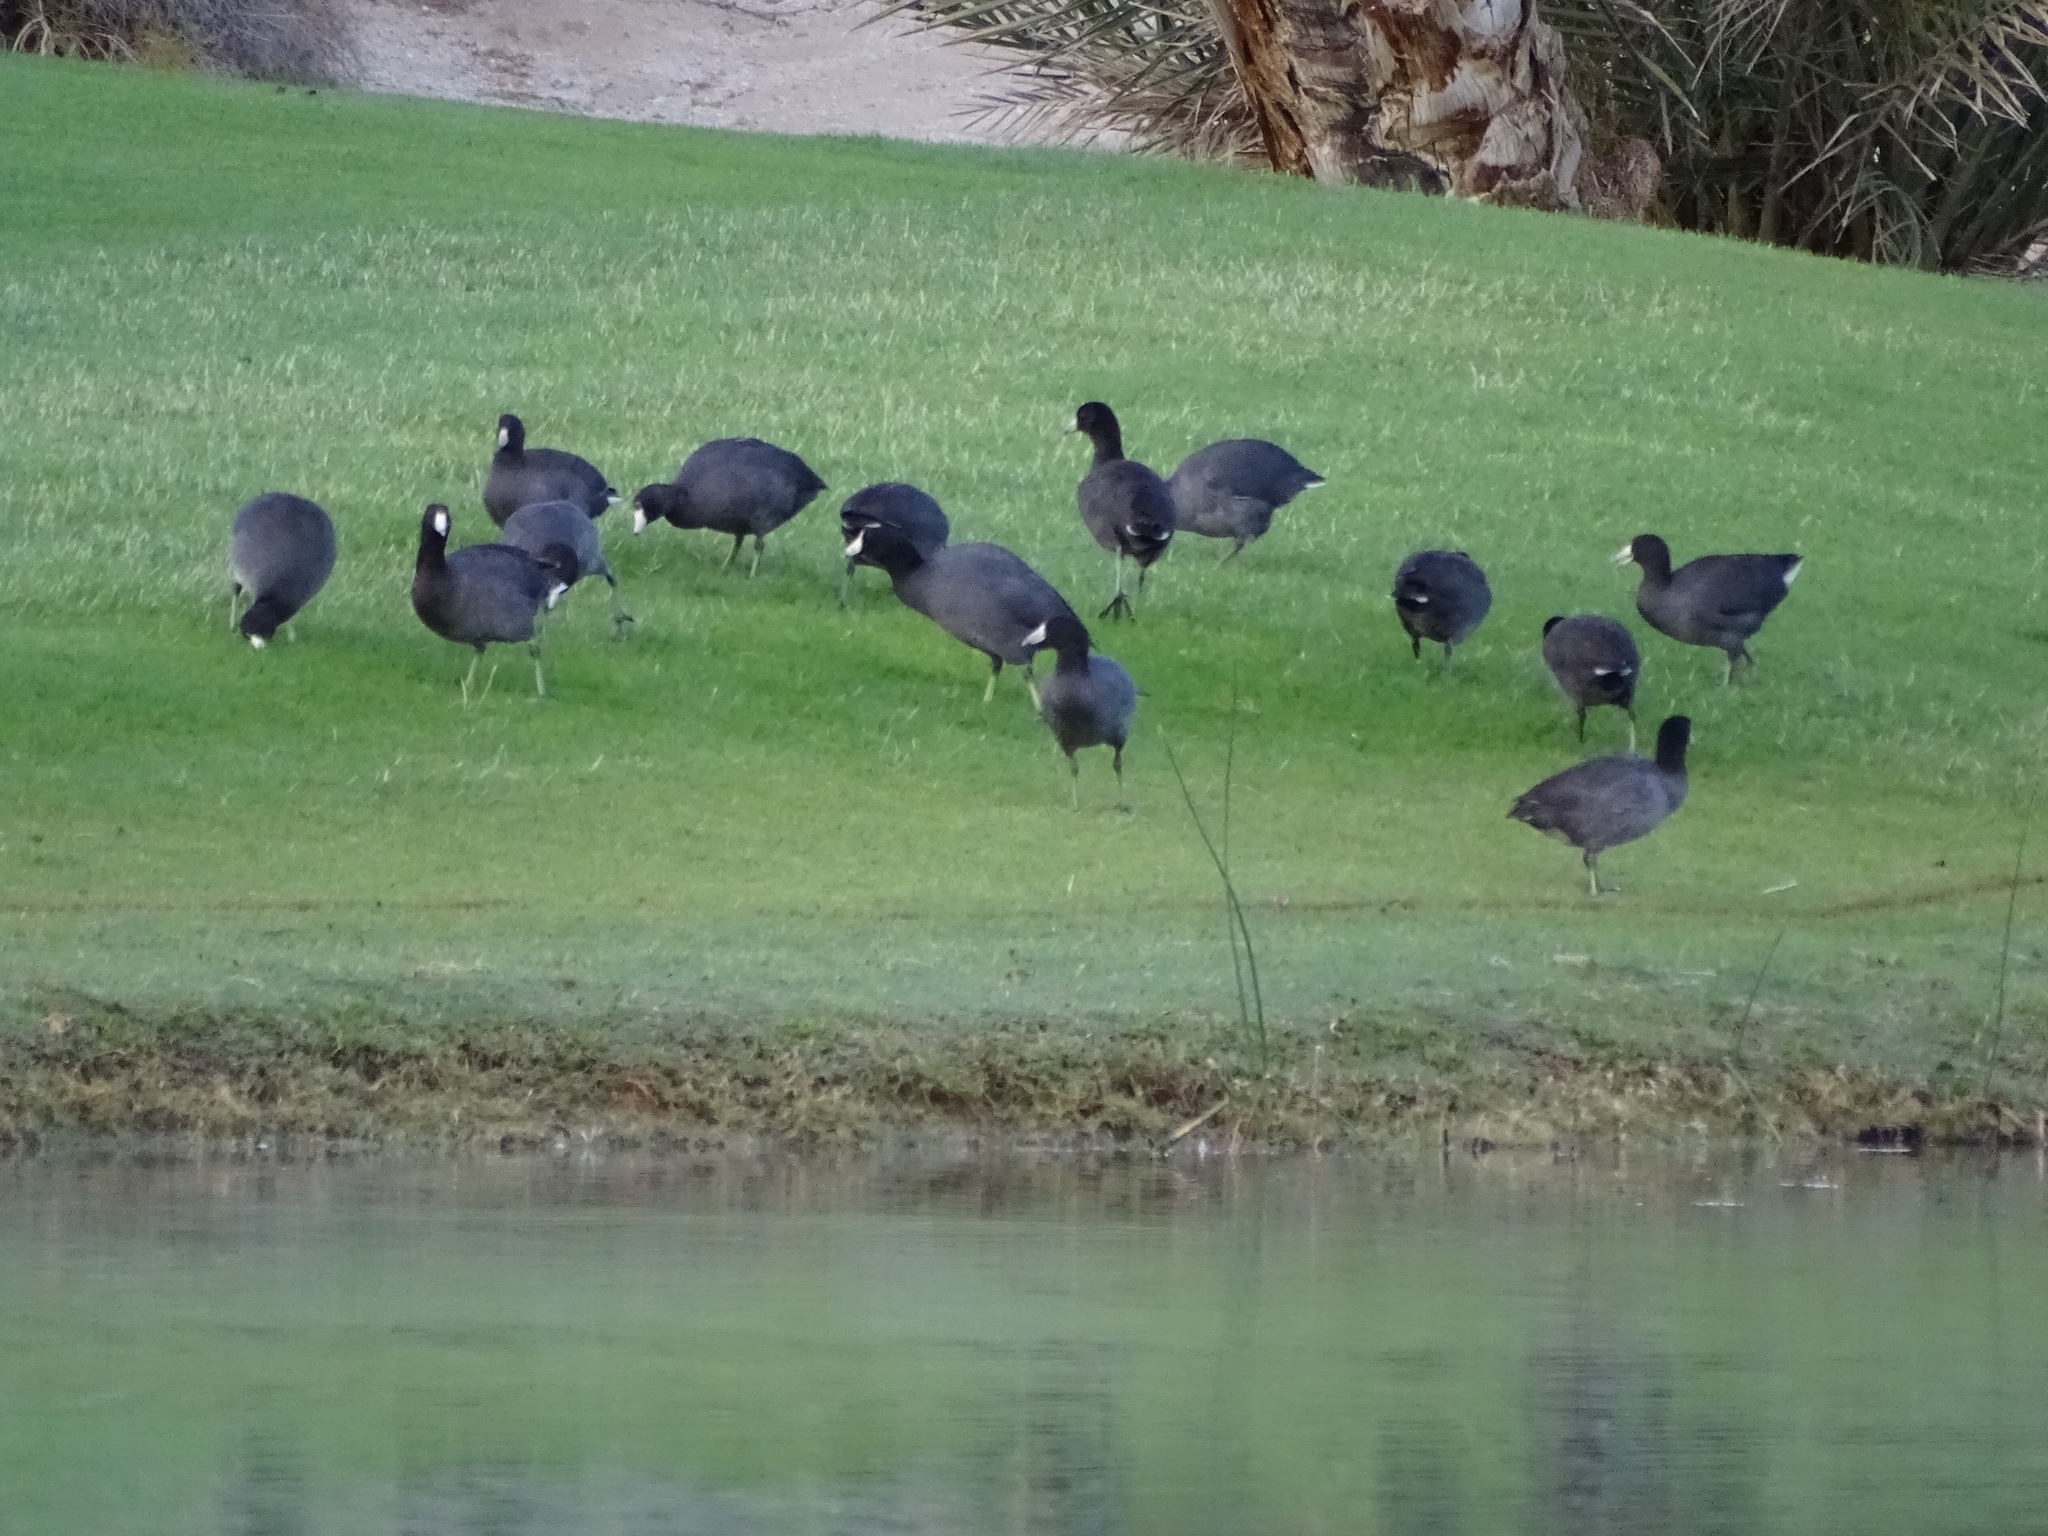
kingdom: Animalia
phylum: Chordata
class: Aves
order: Gruiformes
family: Rallidae
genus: Fulica
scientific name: Fulica americana
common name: American coot
